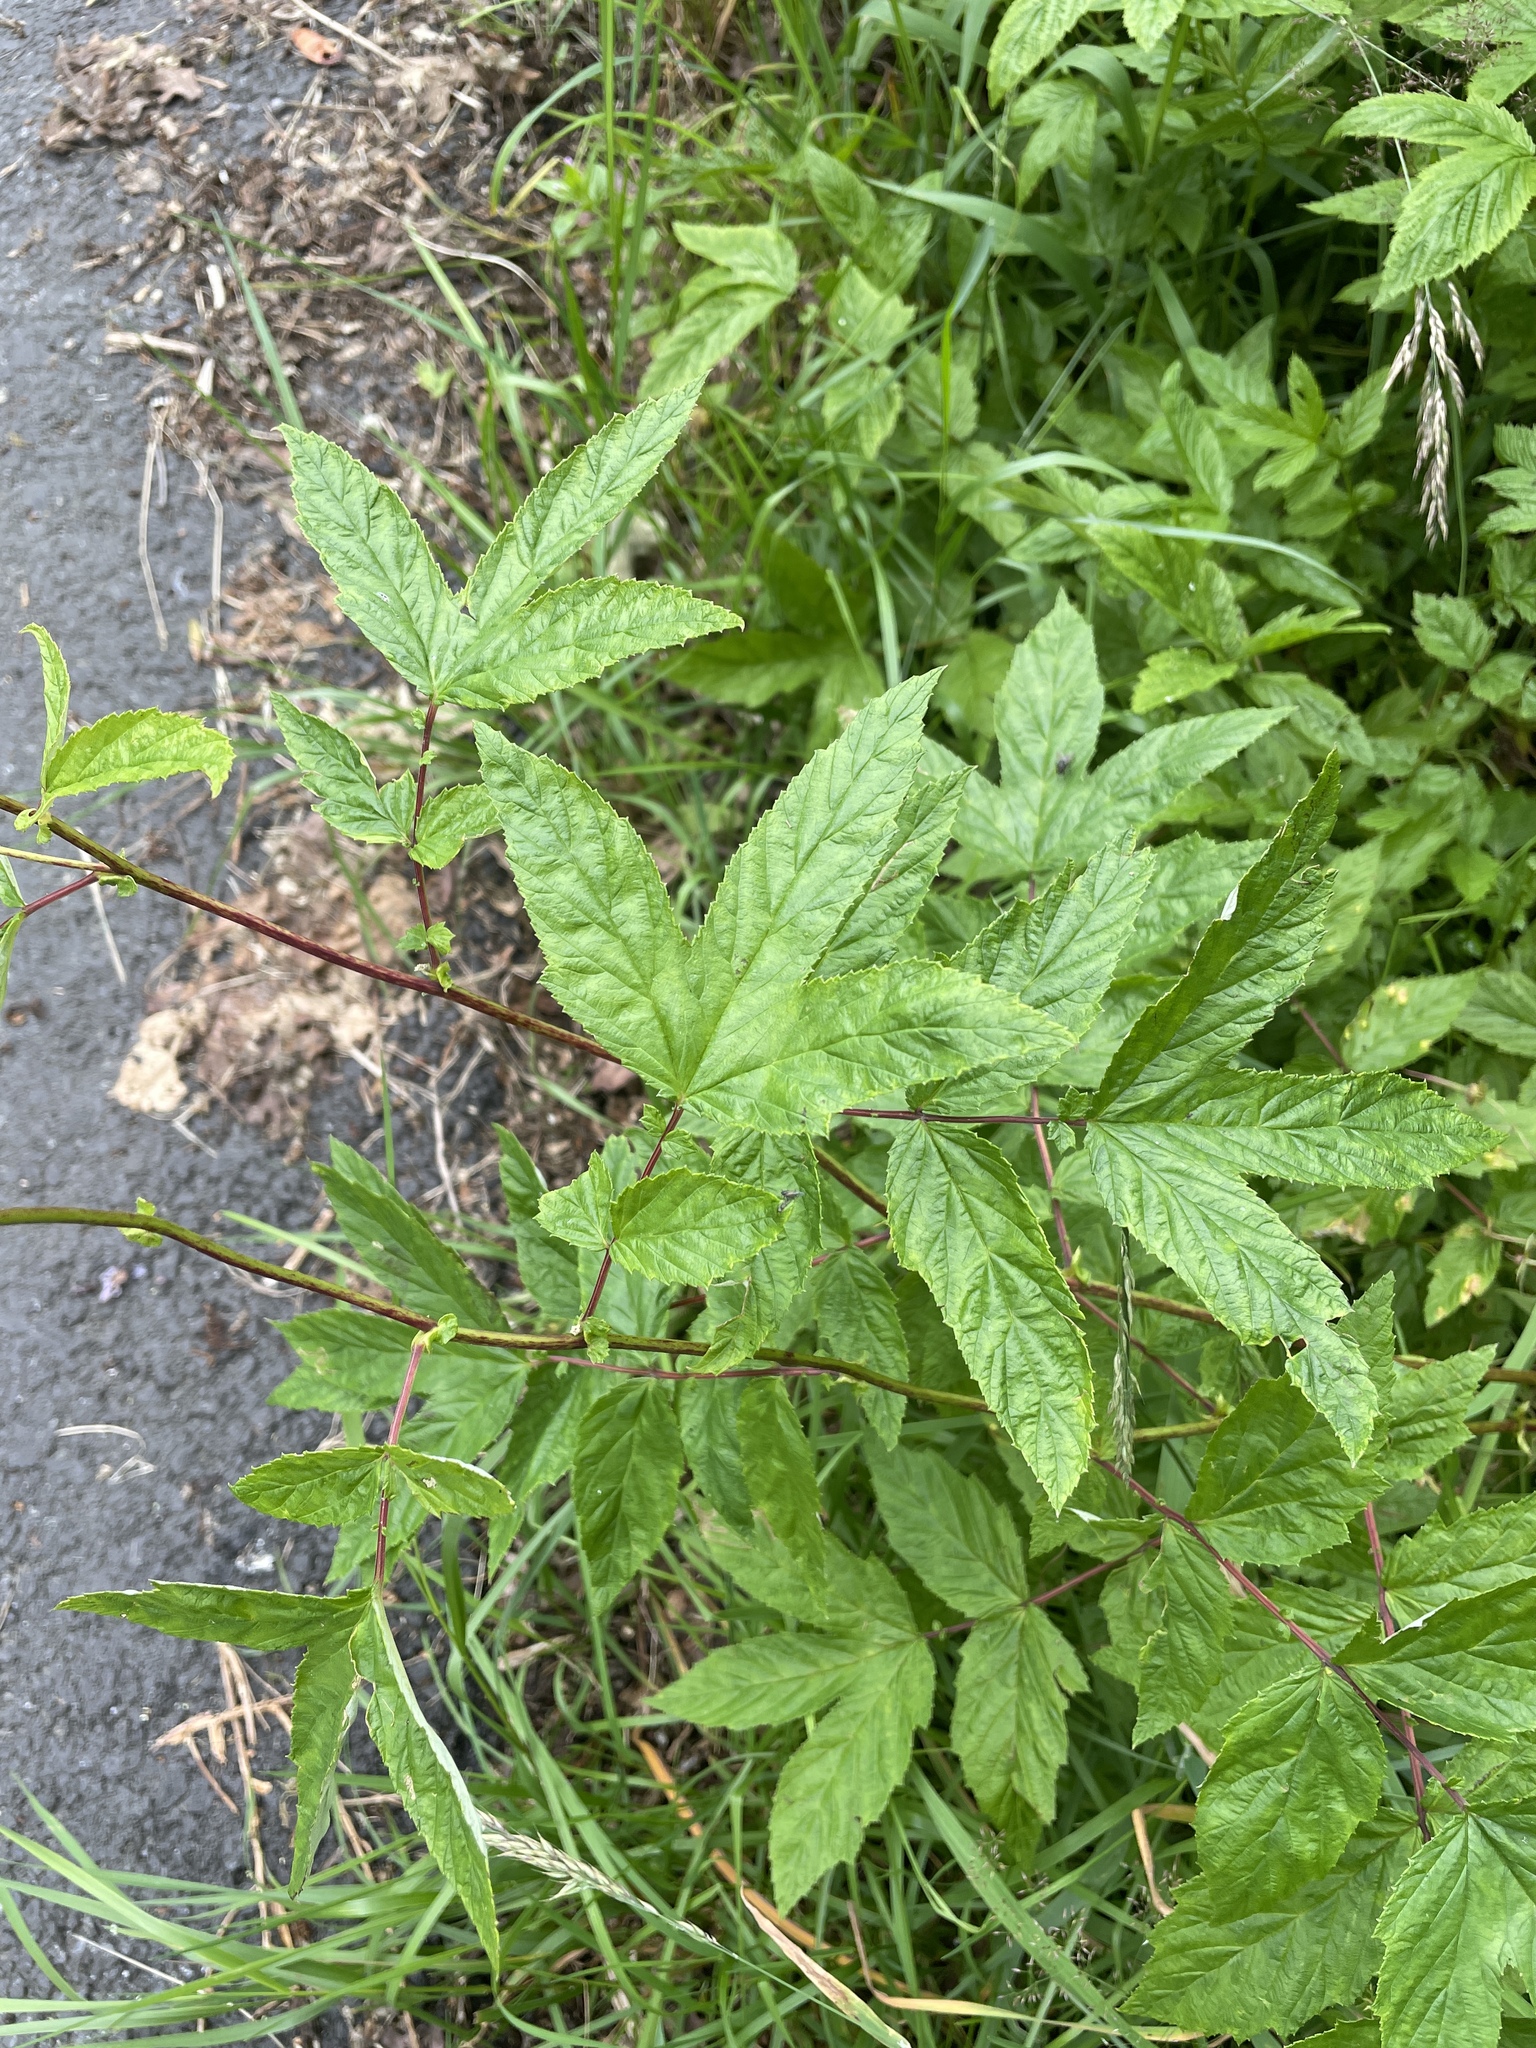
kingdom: Plantae
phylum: Tracheophyta
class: Magnoliopsida
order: Rosales
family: Rosaceae
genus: Filipendula
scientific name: Filipendula ulmaria
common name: Meadowsweet
